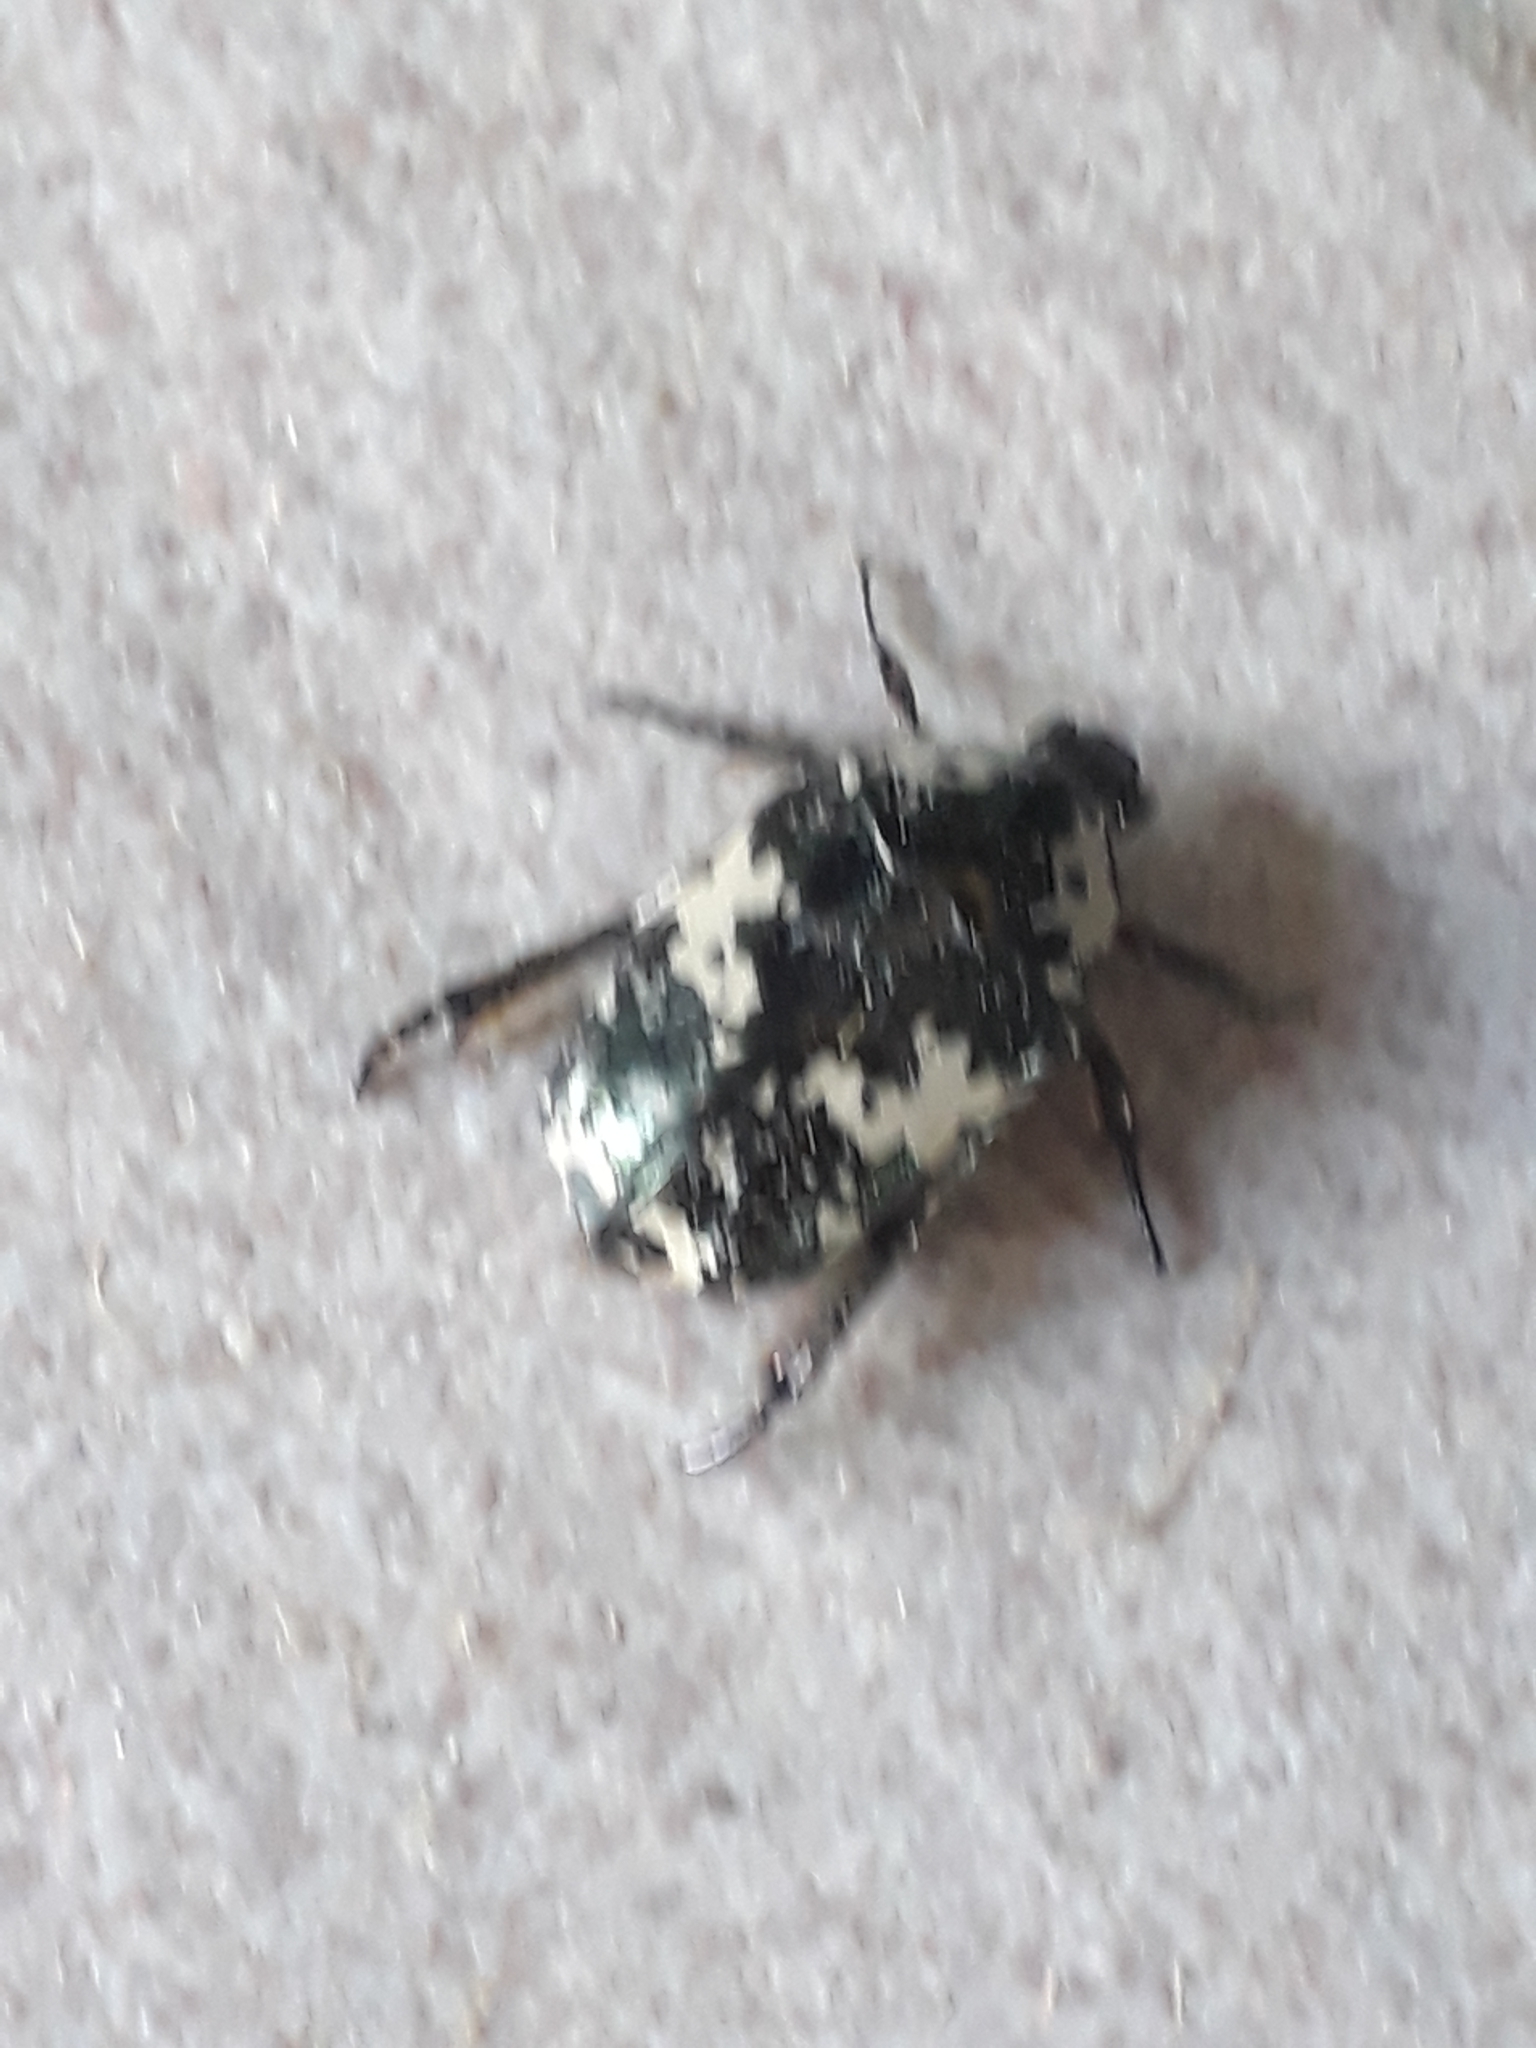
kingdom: Animalia
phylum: Arthropoda
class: Insecta
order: Coleoptera
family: Scarabaeidae
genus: Protaetia
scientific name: Protaetia aurichalcea
